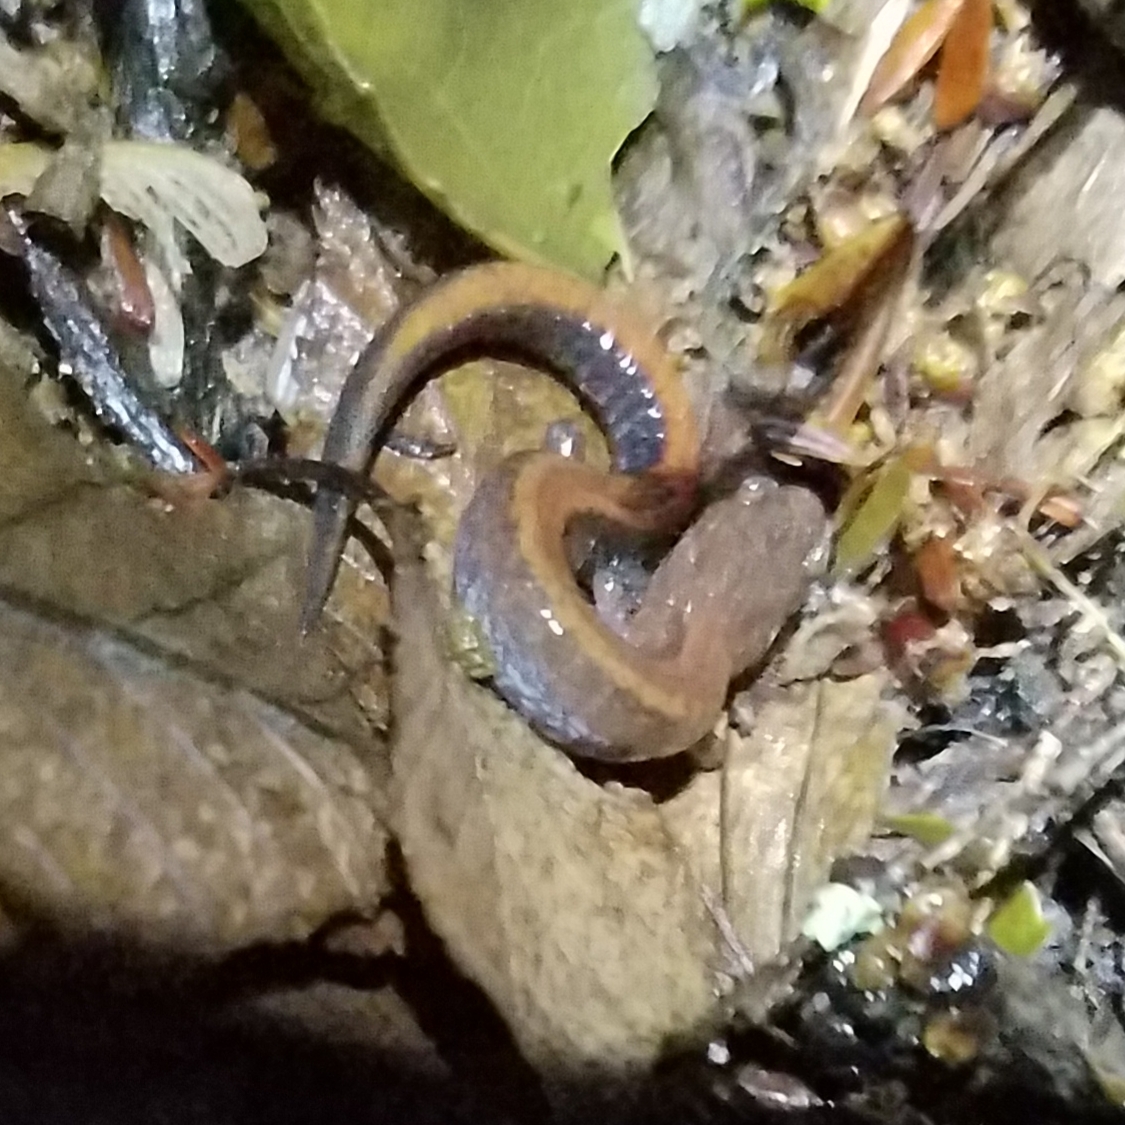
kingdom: Animalia
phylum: Chordata
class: Amphibia
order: Caudata
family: Plethodontidae
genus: Plethodon
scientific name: Plethodon serratus
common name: Southern red-backed salamander
